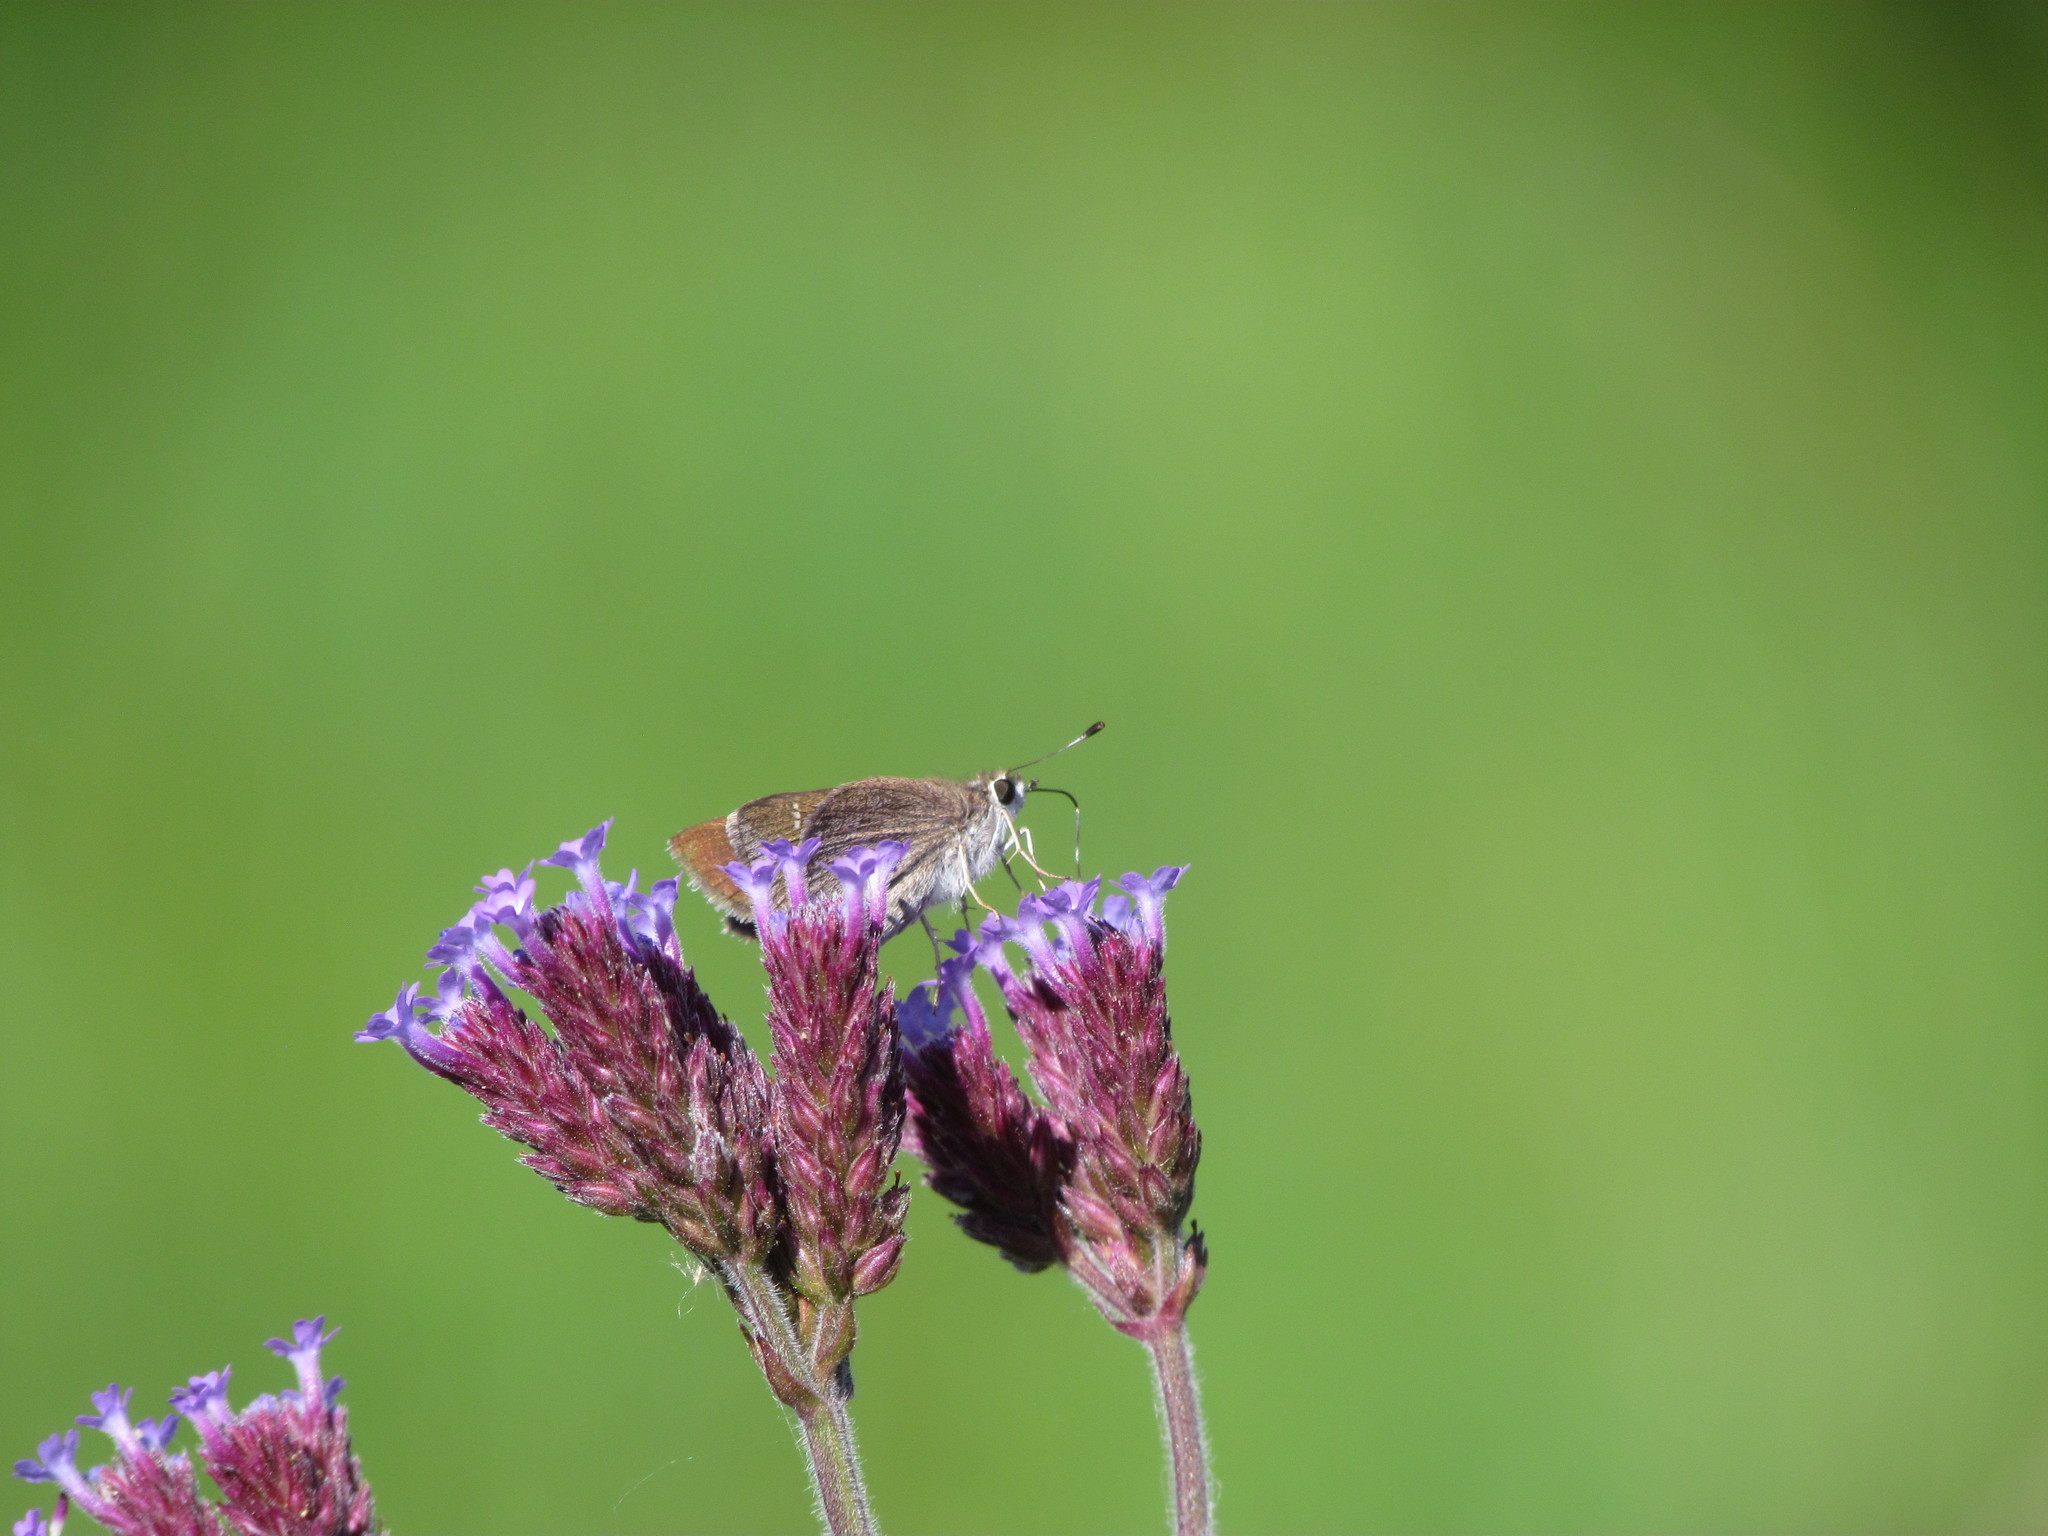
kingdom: Animalia
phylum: Arthropoda
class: Insecta
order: Lepidoptera
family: Hesperiidae
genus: Lerodea
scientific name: Lerodea eufala
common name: Eufala skipper
